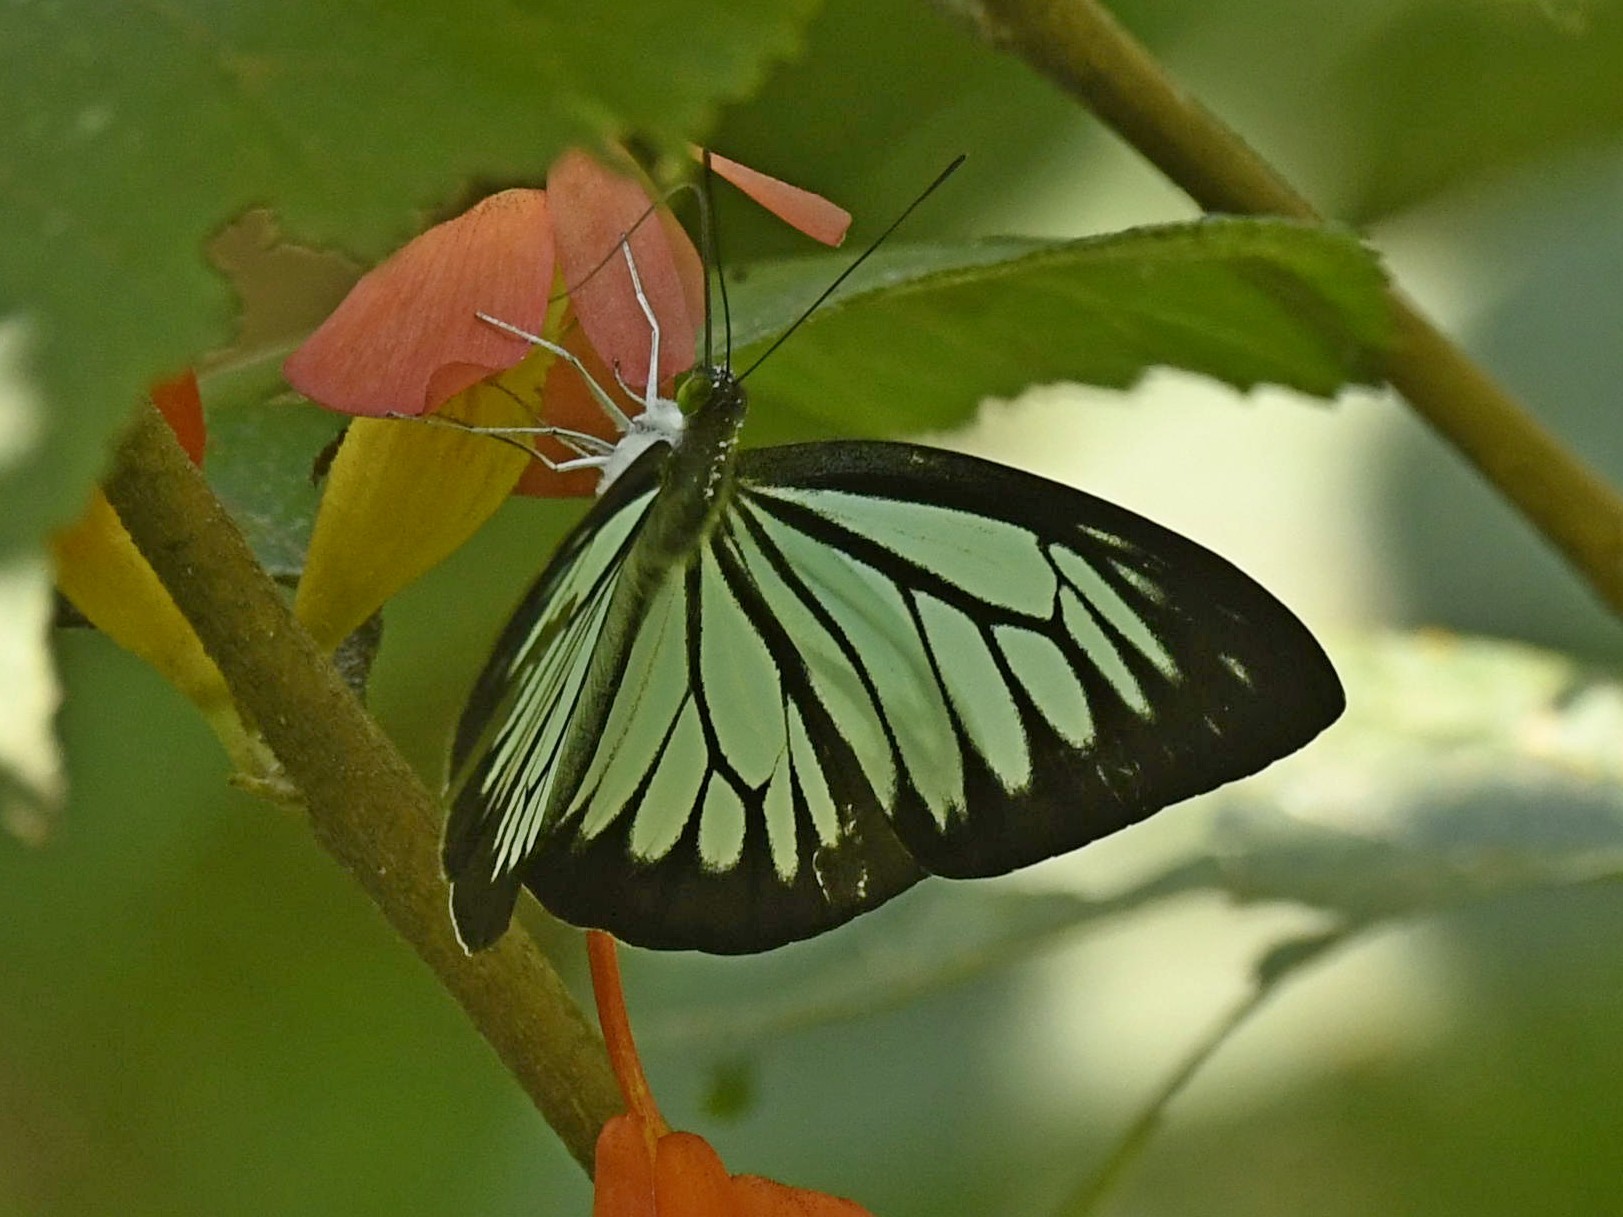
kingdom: Animalia
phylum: Arthropoda
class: Insecta
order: Lepidoptera
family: Pieridae
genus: Pareronia
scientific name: Pareronia hippia
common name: Indian wanderer
